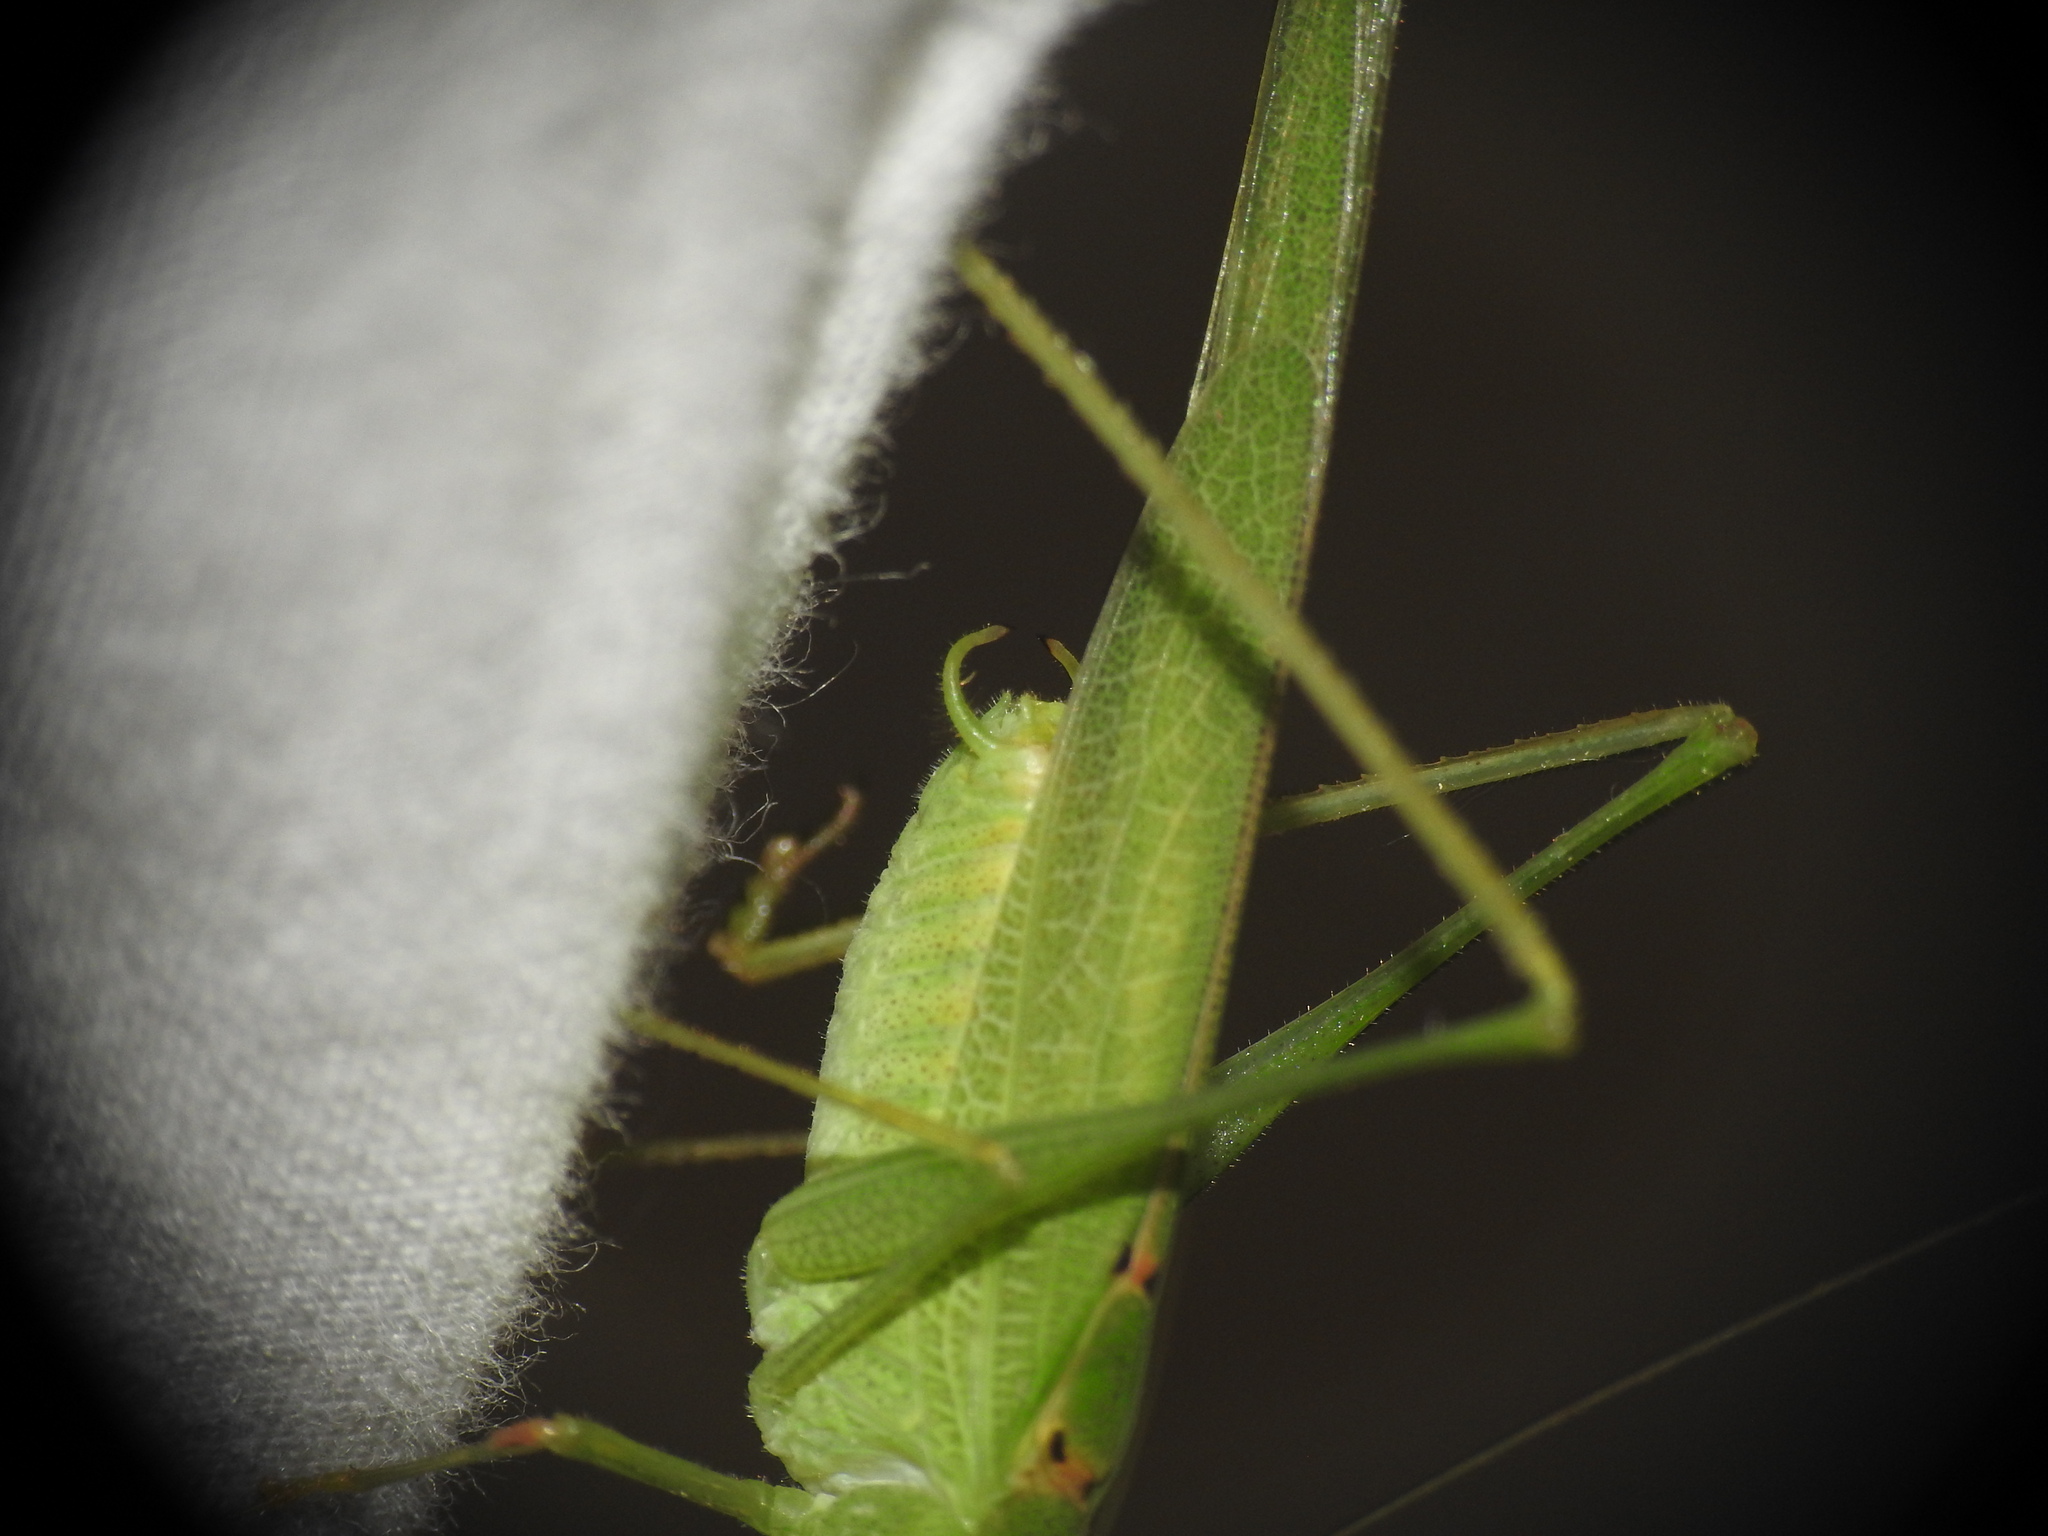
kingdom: Animalia
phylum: Arthropoda
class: Insecta
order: Orthoptera
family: Tettigoniidae
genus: Phaneroptera
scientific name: Phaneroptera nana
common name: Southern sickle bush-cricket
